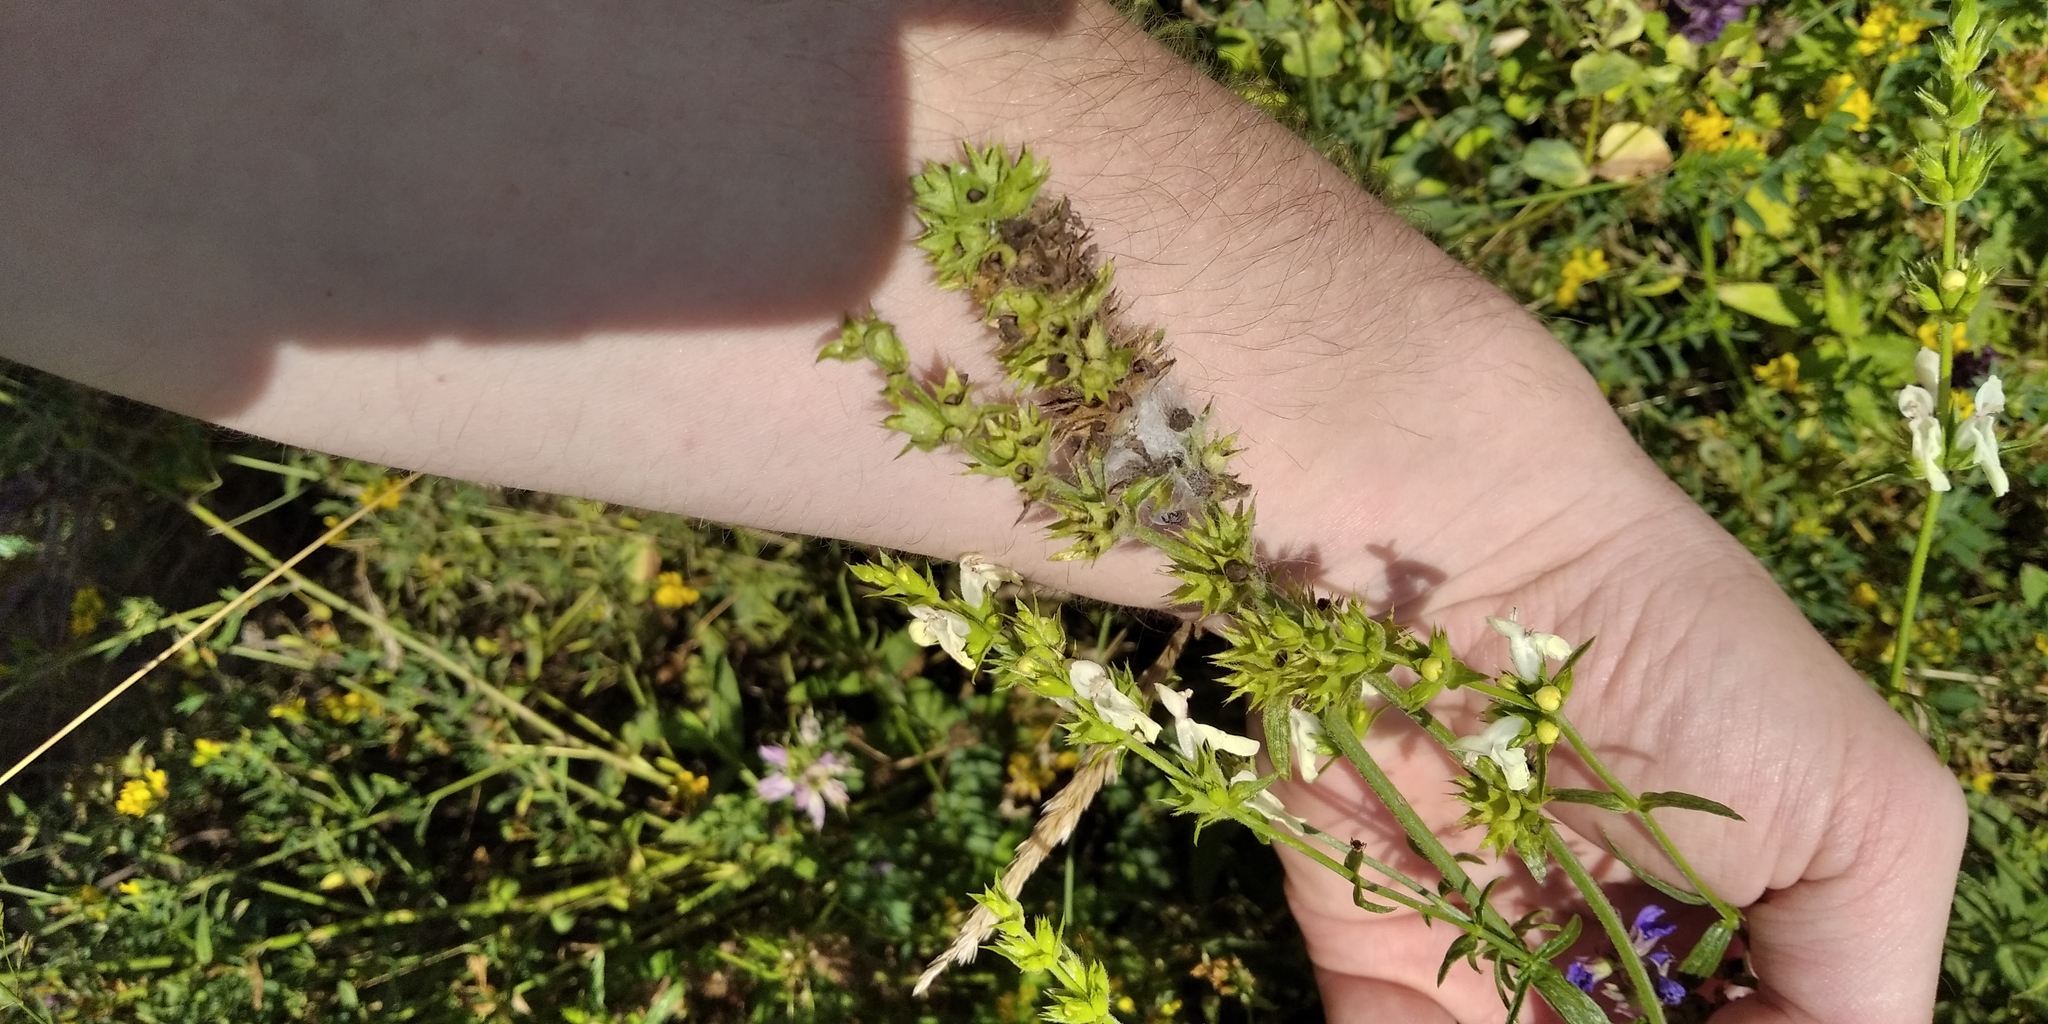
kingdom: Plantae
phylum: Tracheophyta
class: Magnoliopsida
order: Lamiales
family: Lamiaceae
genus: Stachys
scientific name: Stachys recta
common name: Perennial yellow-woundwort
